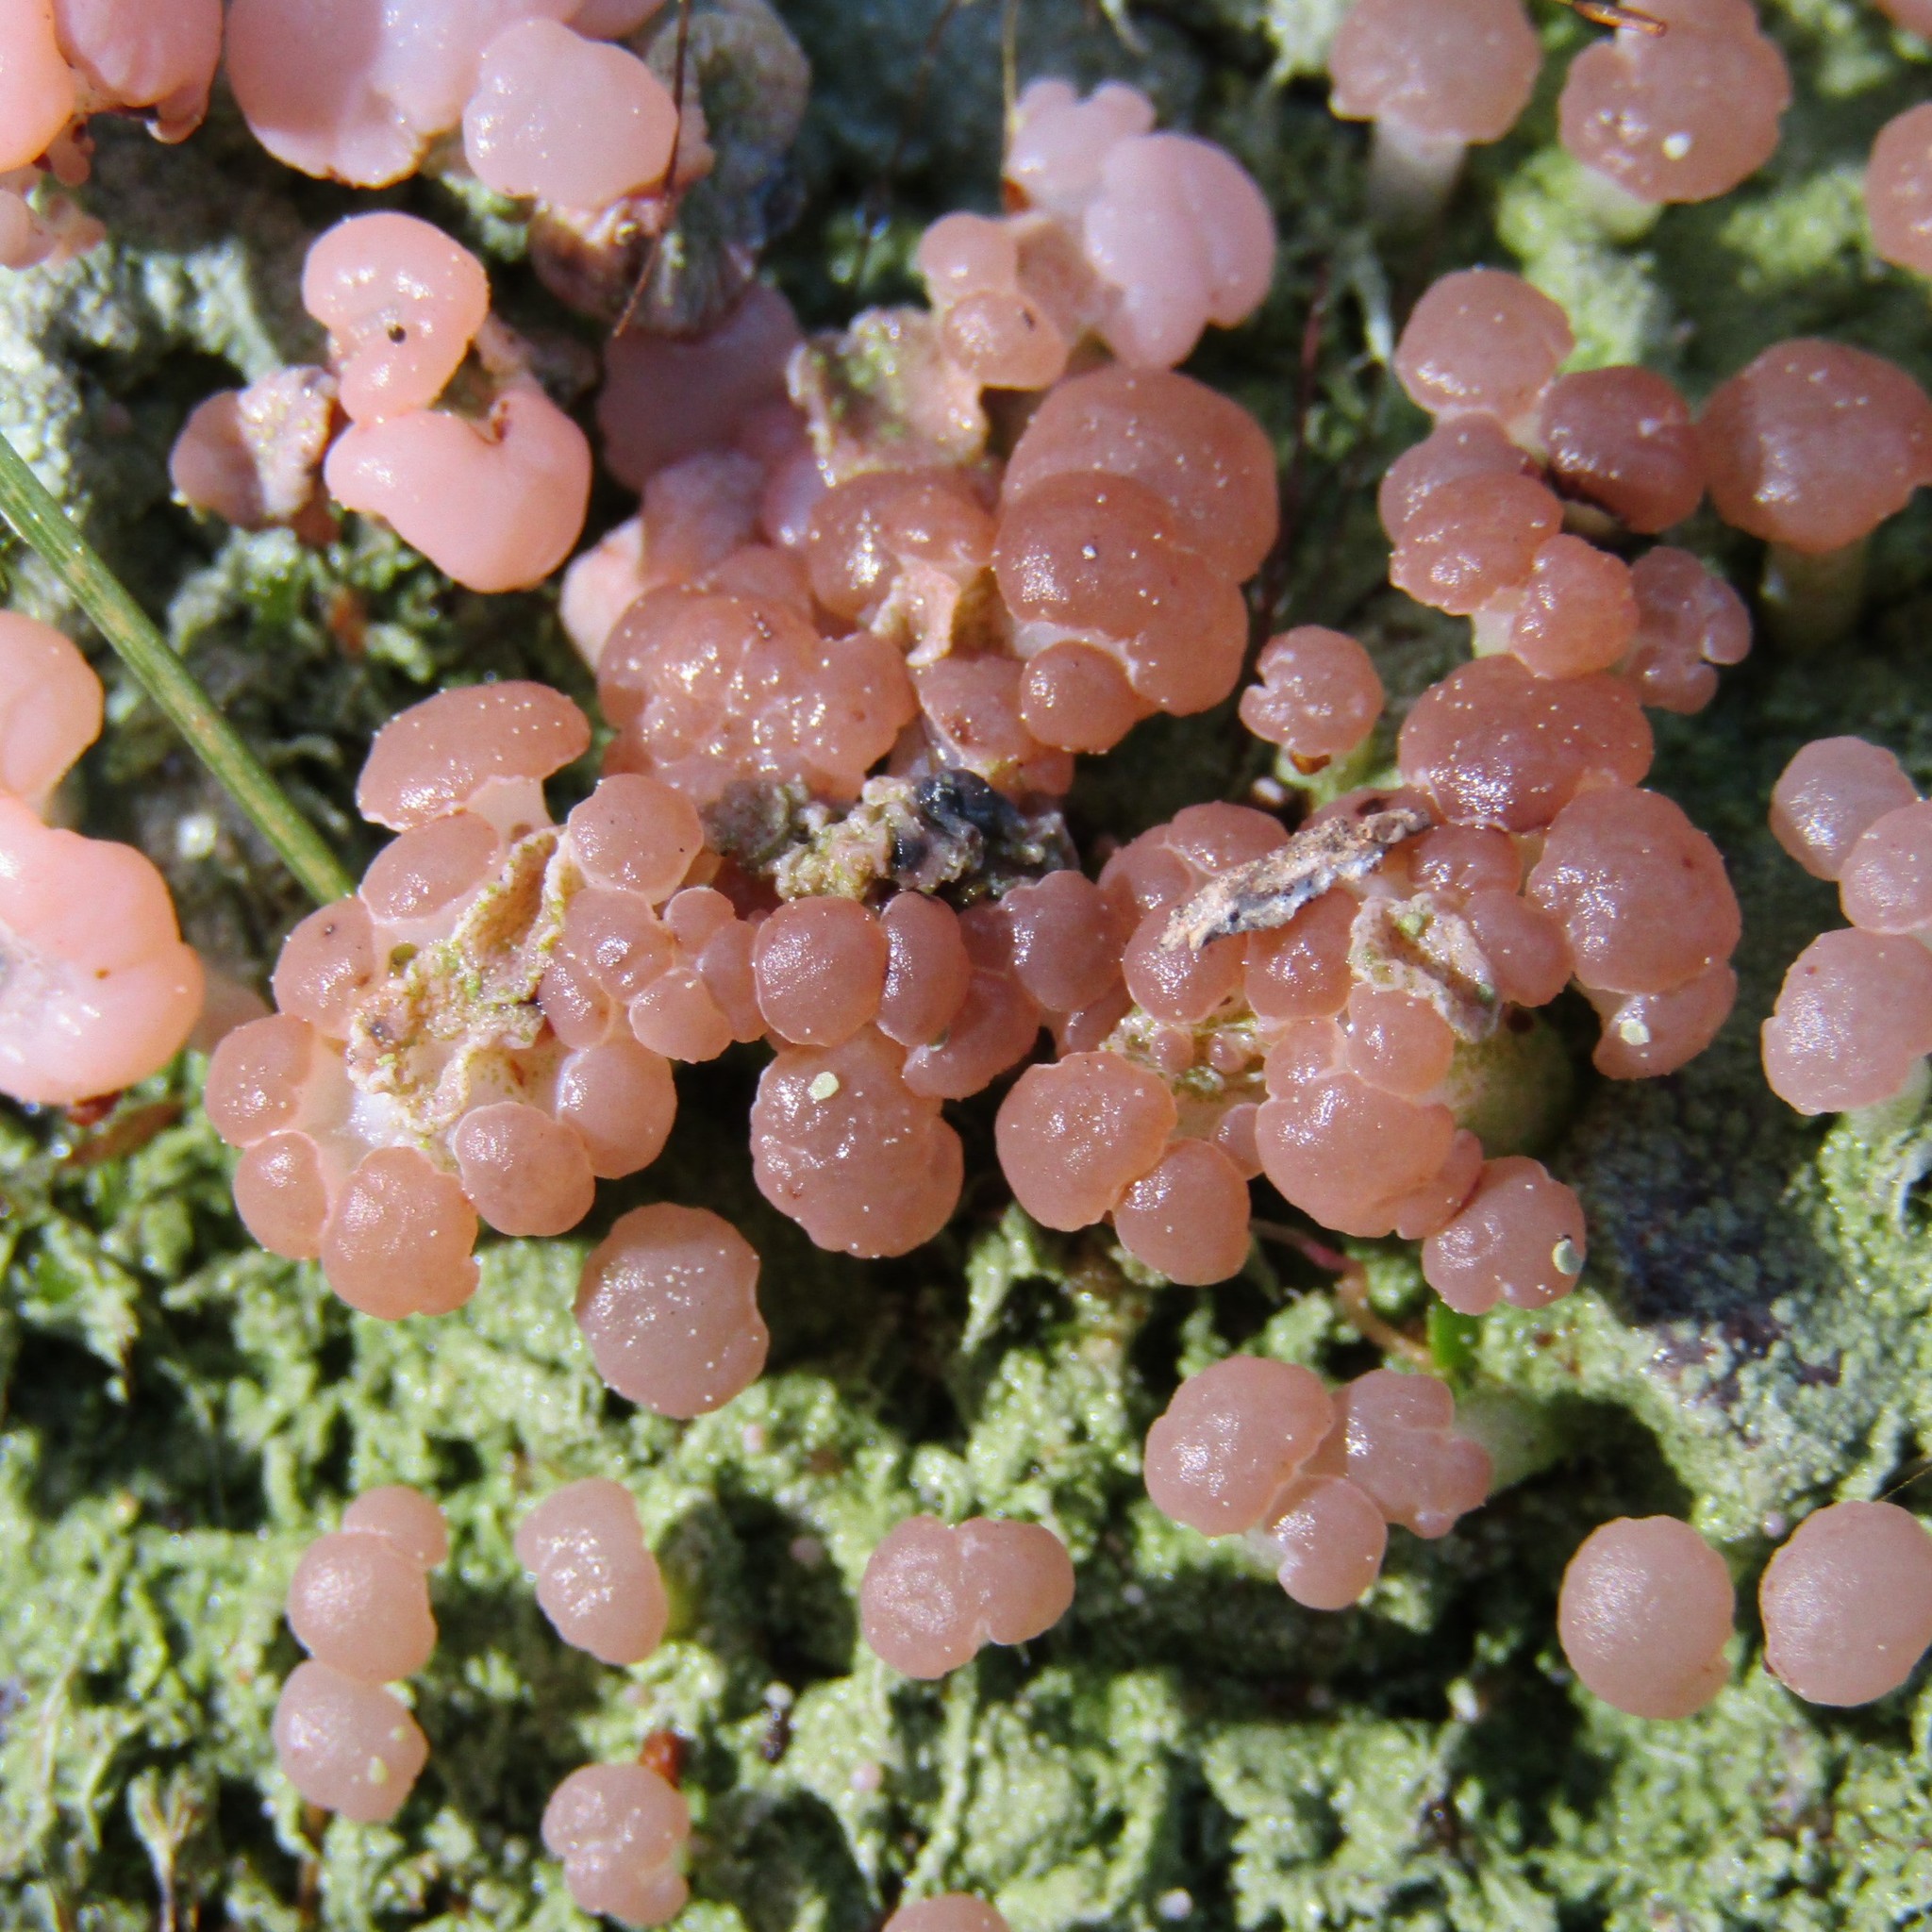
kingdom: Fungi
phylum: Ascomycota
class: Lecanoromycetes
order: Baeomycetales
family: Baeomycetaceae
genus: Baeomyces
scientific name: Baeomyces heteromorphus
